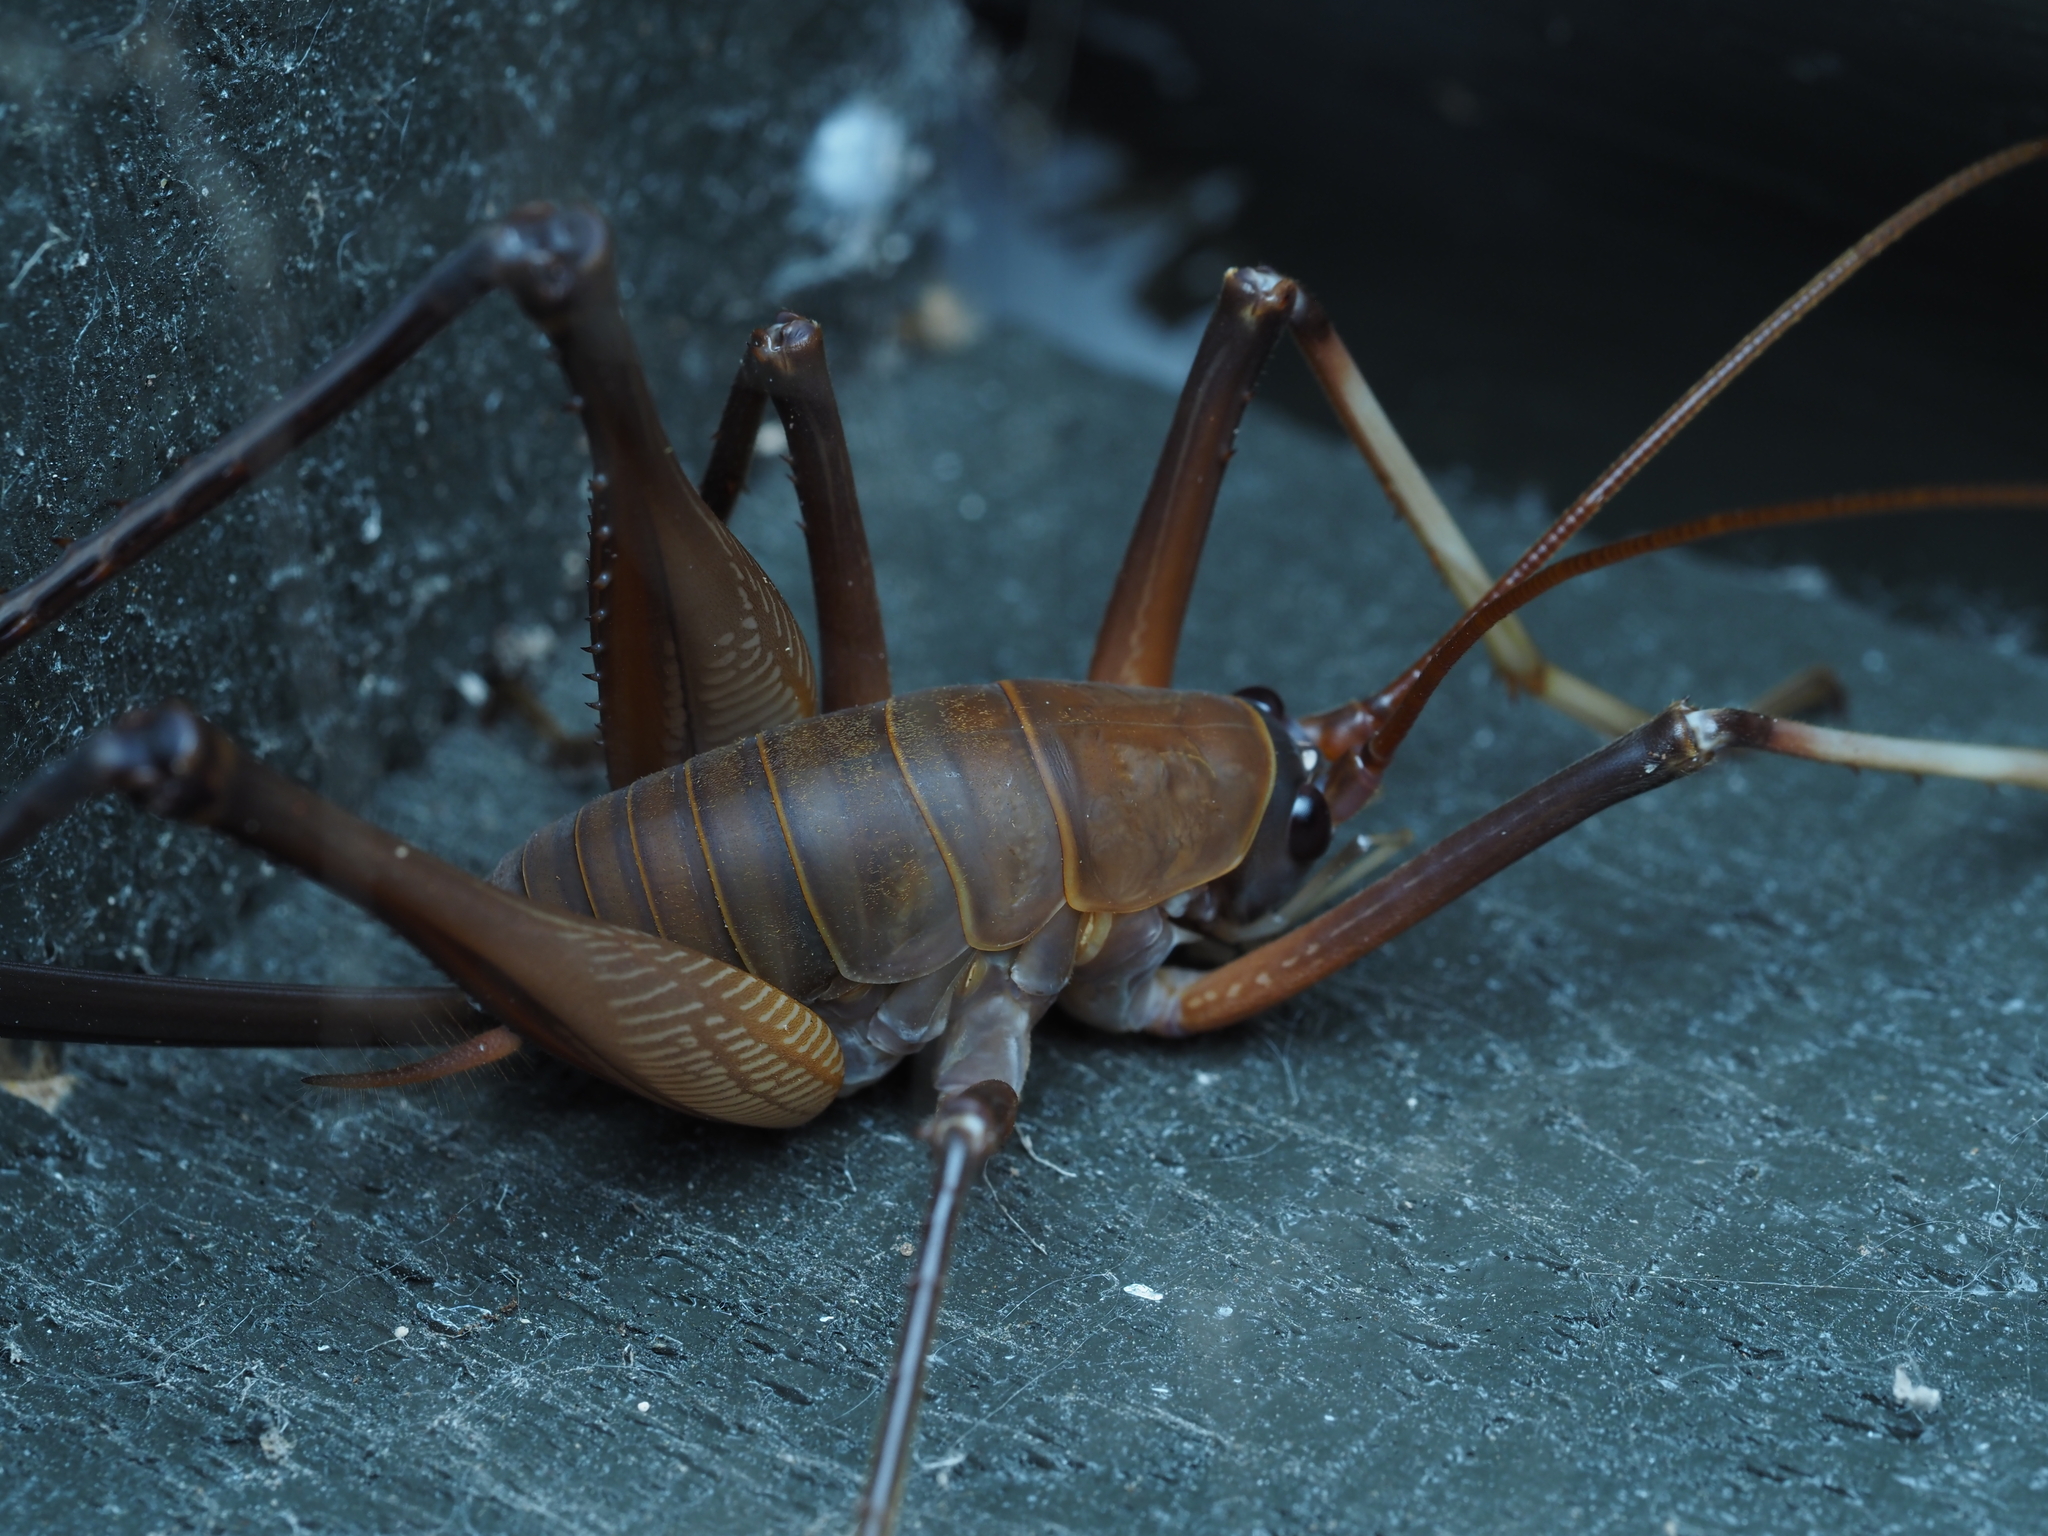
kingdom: Animalia
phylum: Arthropoda
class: Insecta
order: Orthoptera
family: Rhaphidophoridae
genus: Pachyrhamma
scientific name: Pachyrhamma longipes
